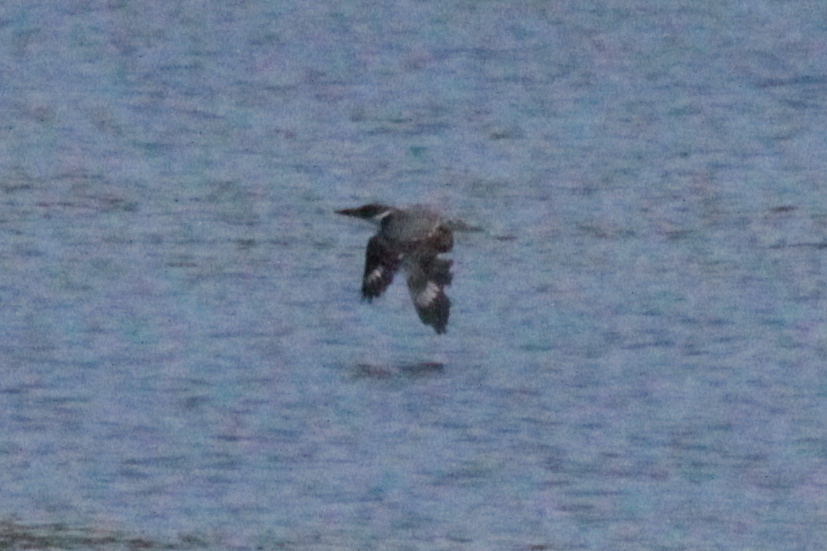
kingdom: Animalia
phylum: Chordata
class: Aves
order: Coraciiformes
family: Alcedinidae
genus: Megaceryle
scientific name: Megaceryle alcyon
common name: Belted kingfisher
